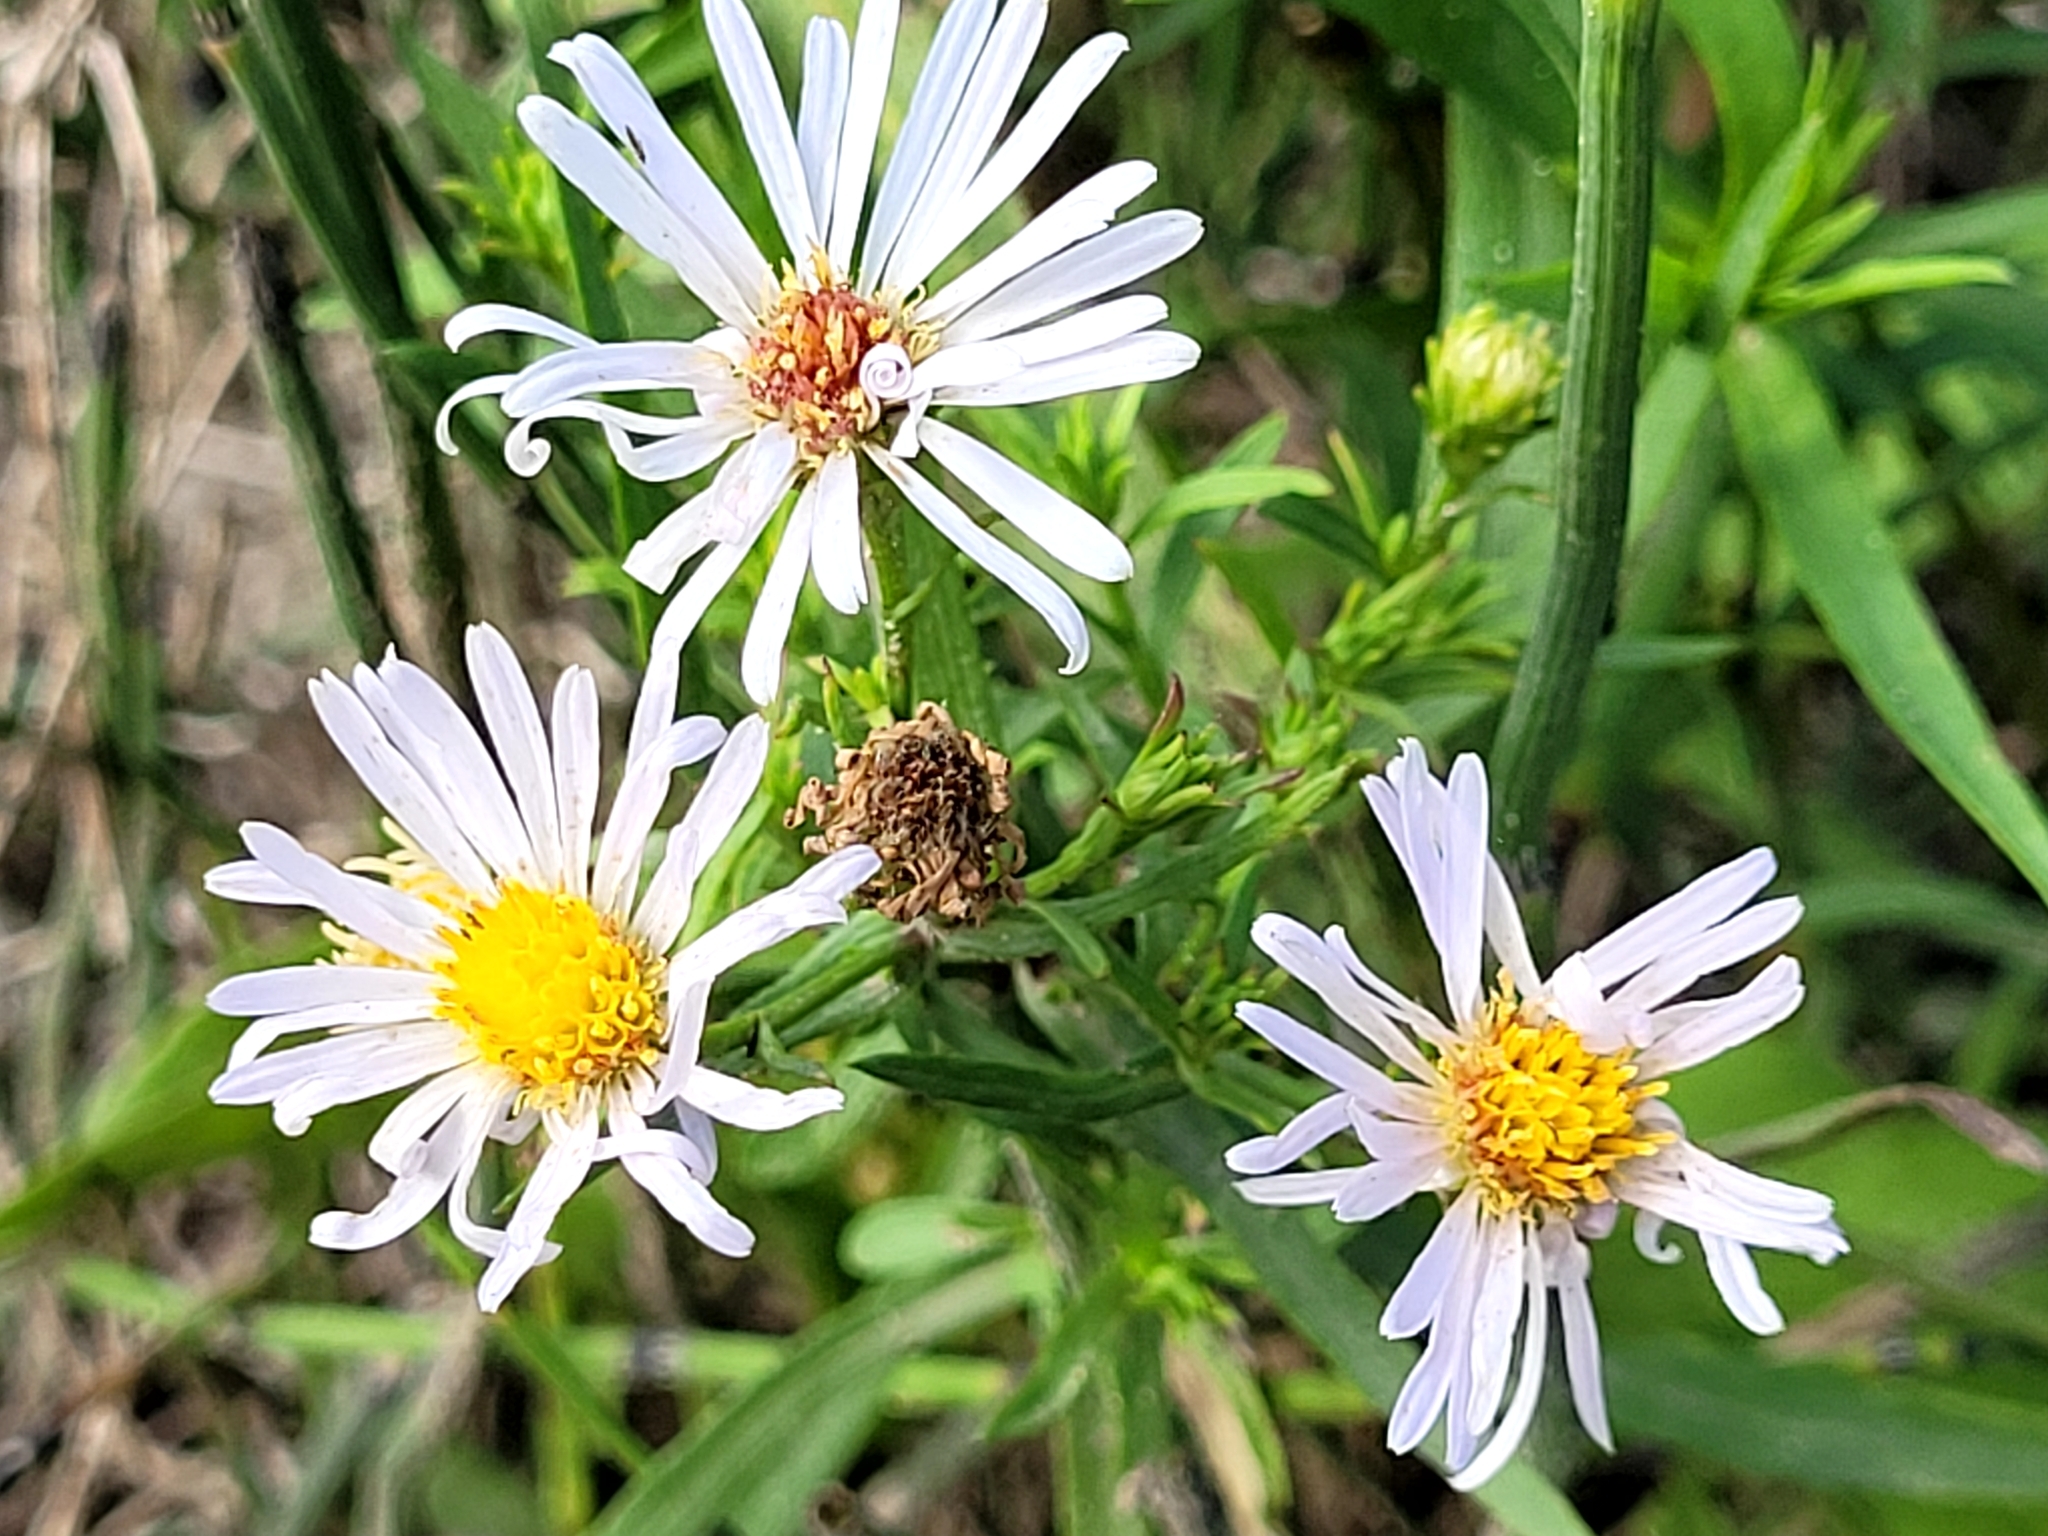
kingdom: Plantae
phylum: Tracheophyta
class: Magnoliopsida
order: Asterales
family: Asteraceae
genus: Symphyotrichum
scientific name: Symphyotrichum lanceolatum
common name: Panicled aster
